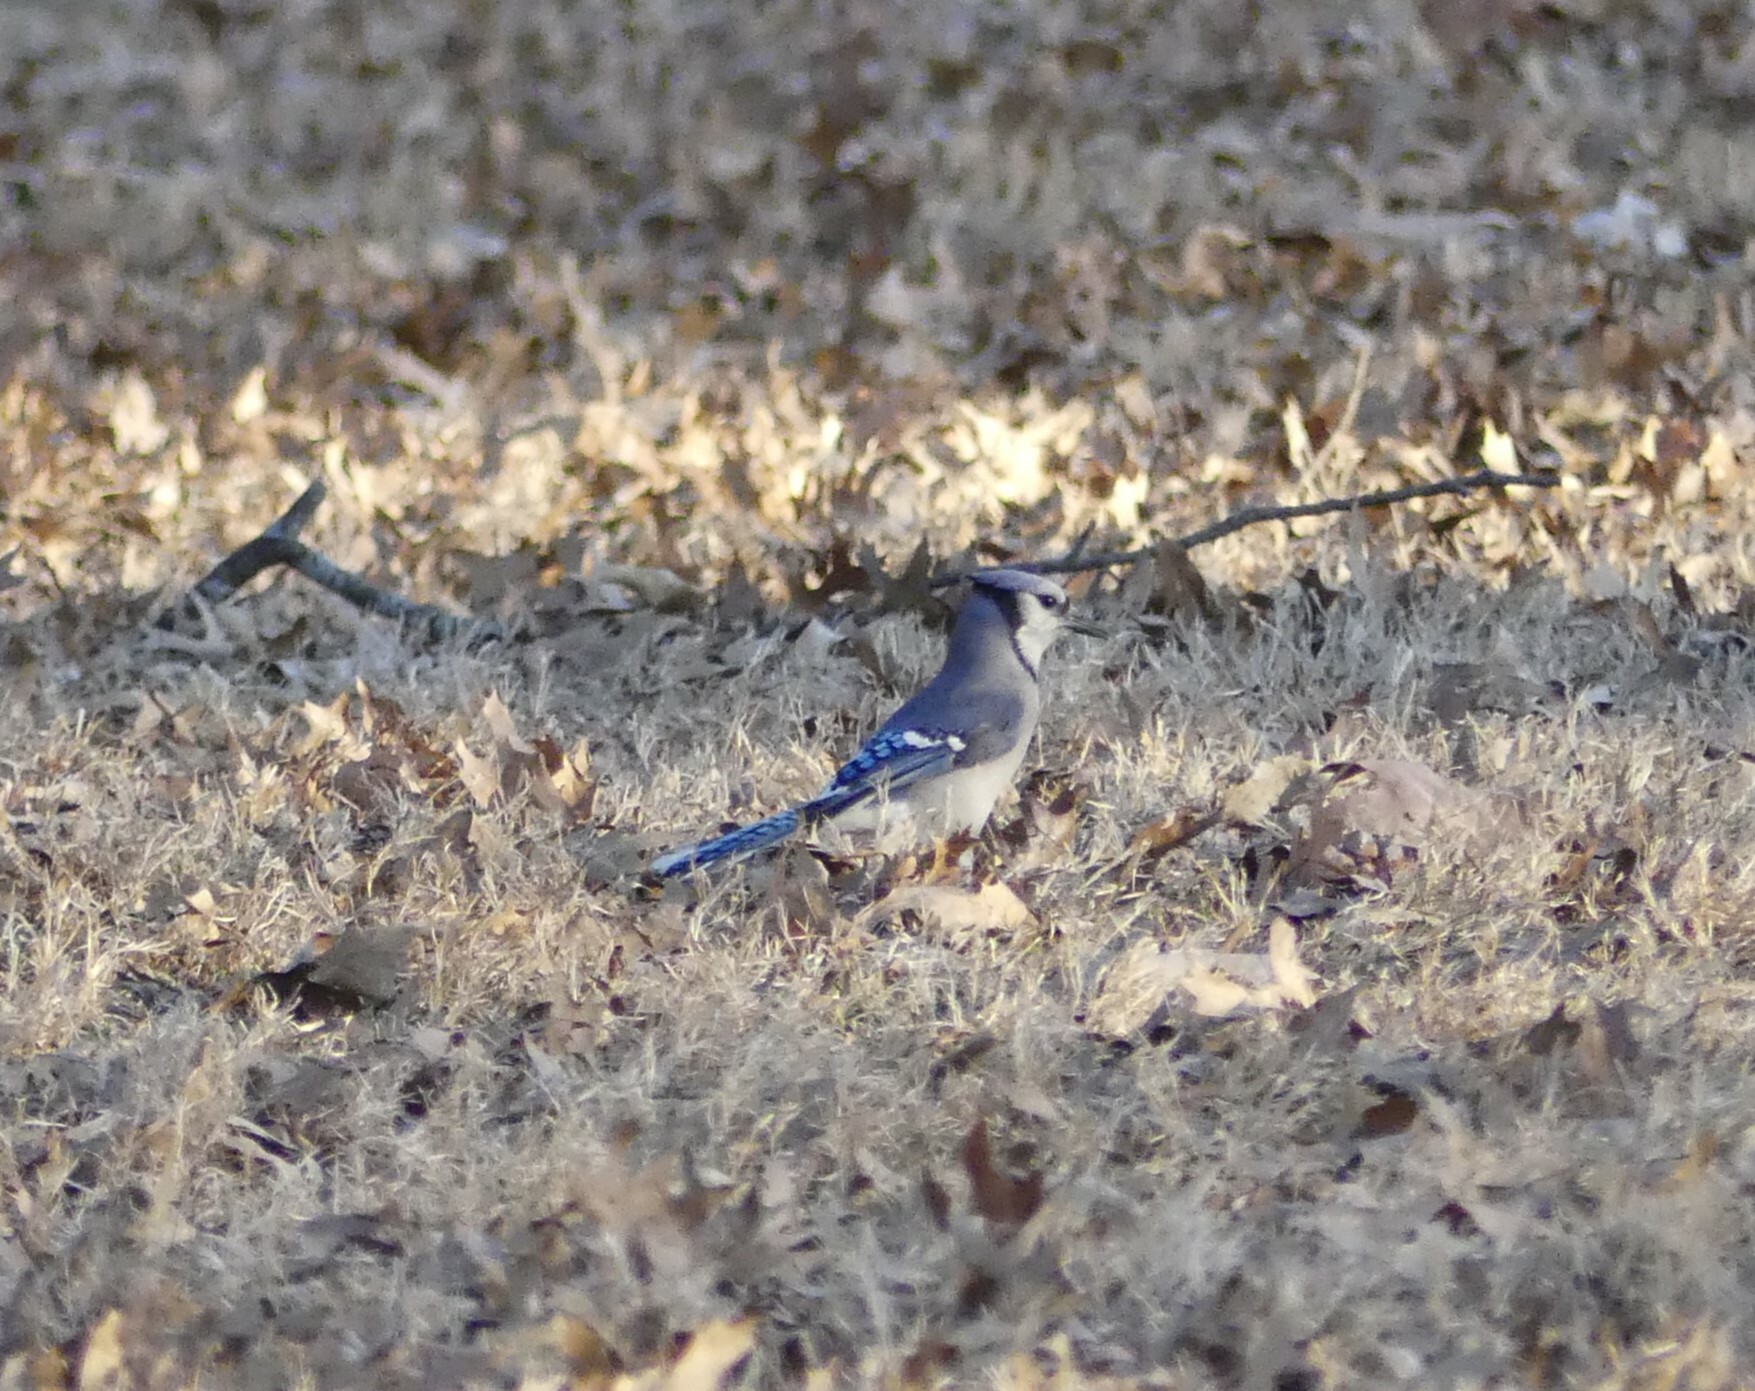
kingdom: Animalia
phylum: Chordata
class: Aves
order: Passeriformes
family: Corvidae
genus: Cyanocitta
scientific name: Cyanocitta cristata
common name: Blue jay
